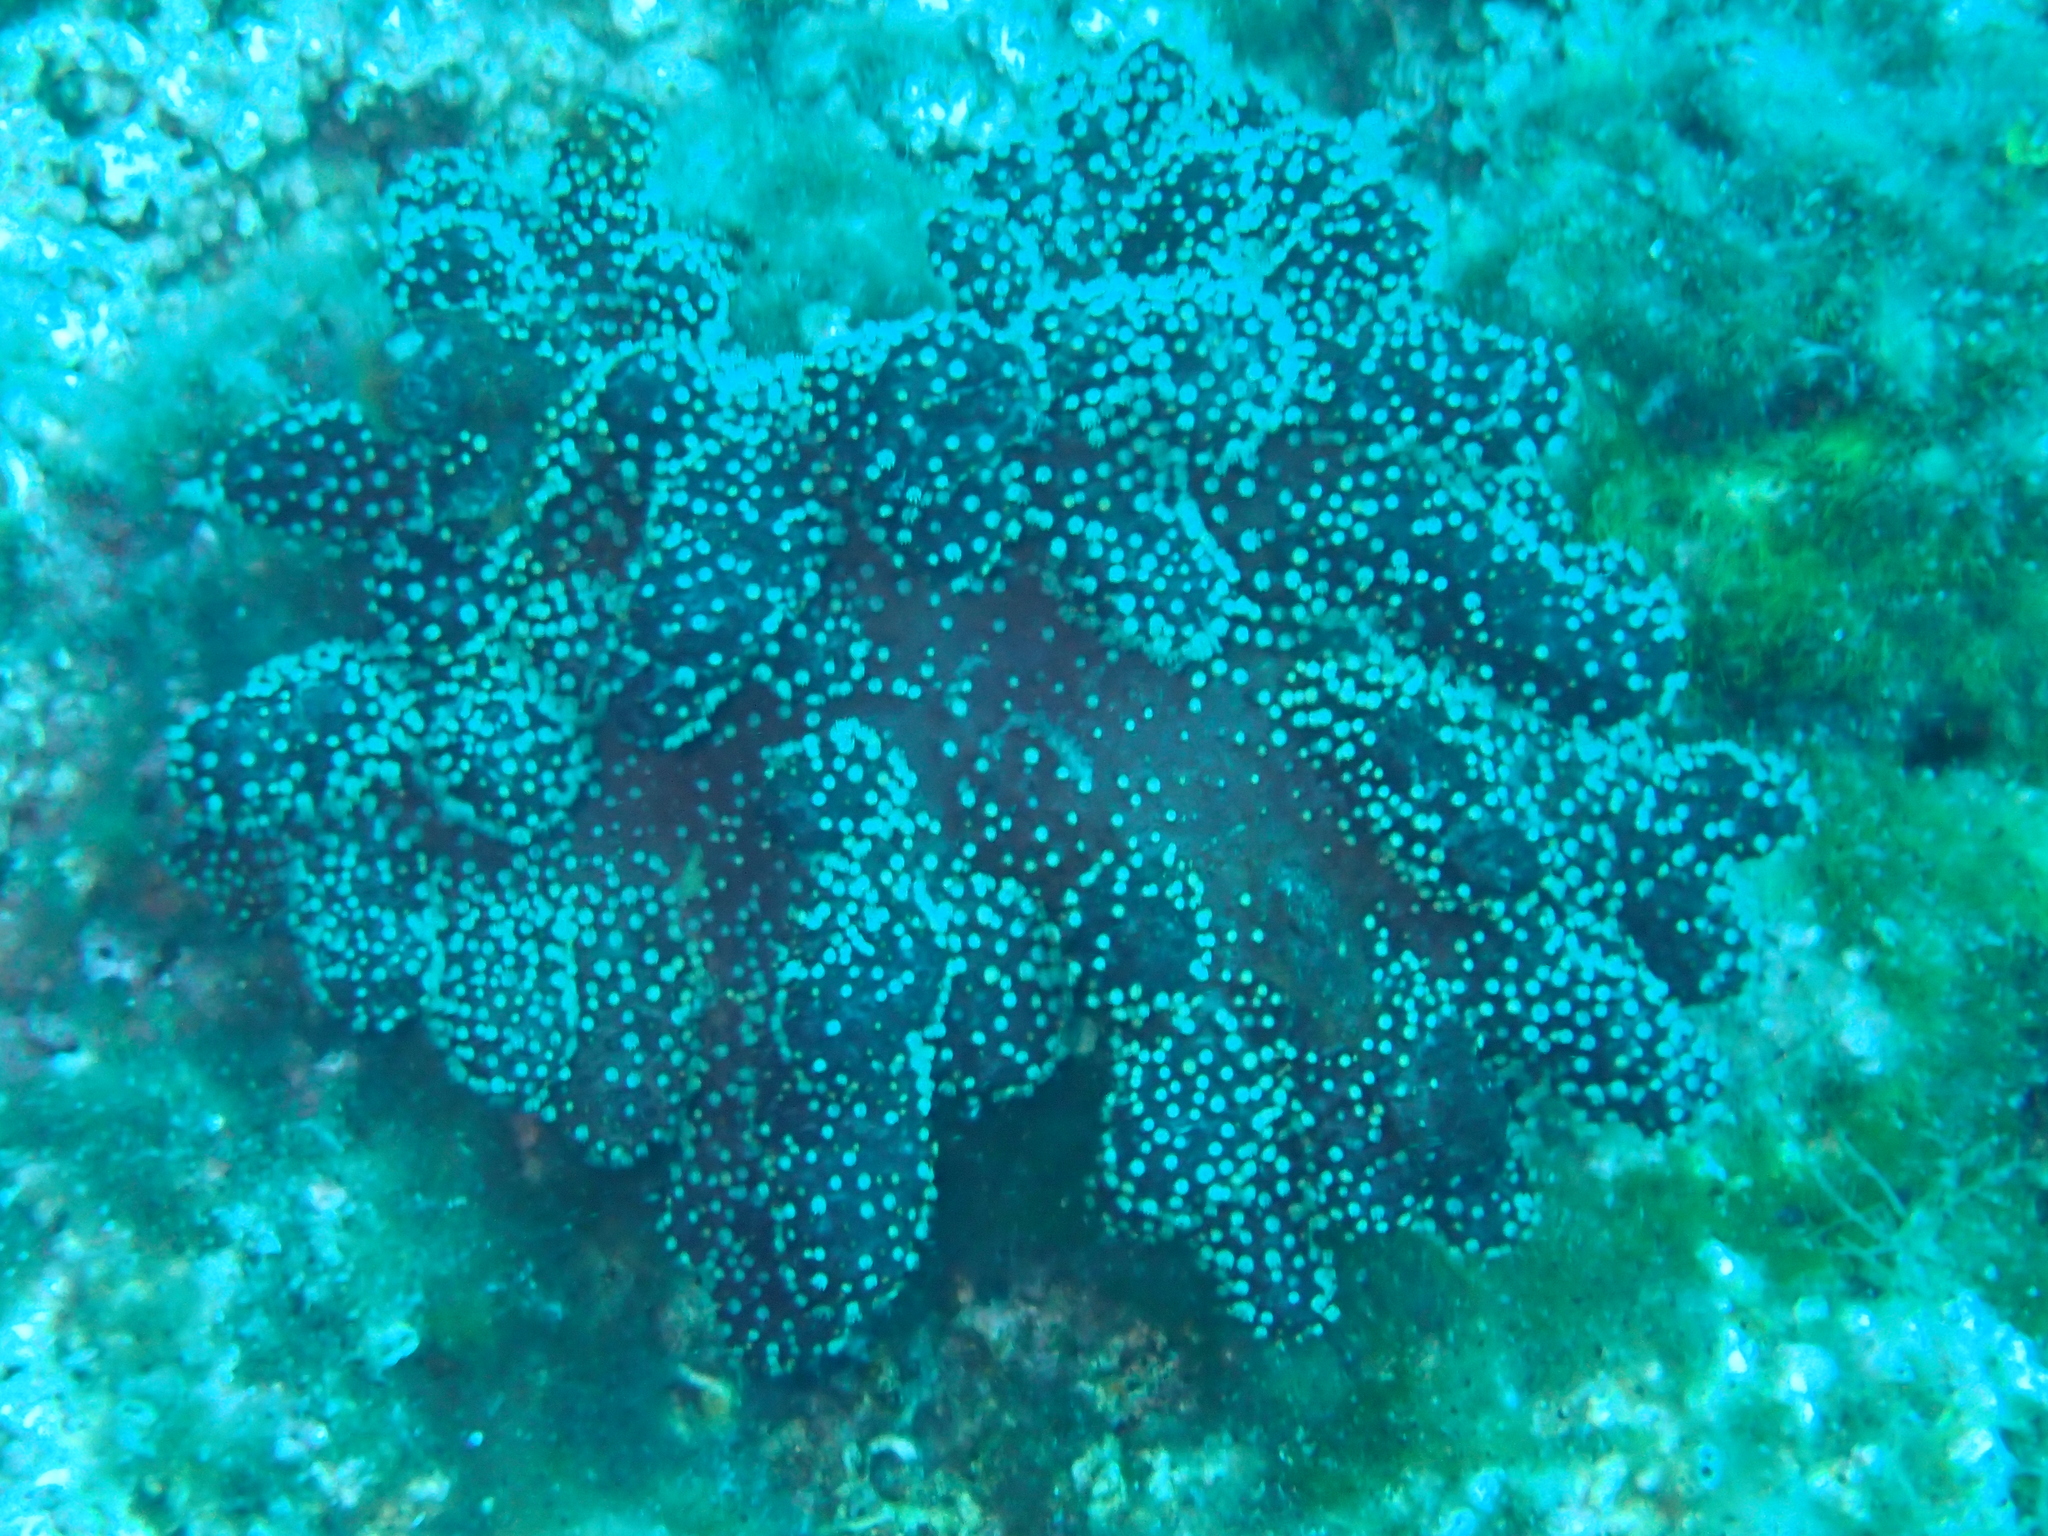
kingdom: Animalia
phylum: Cnidaria
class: Anthozoa
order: Malacalcyonacea
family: Alcyoniidae
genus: Alcyonium
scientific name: Alcyonium acaule
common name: Sea finger
